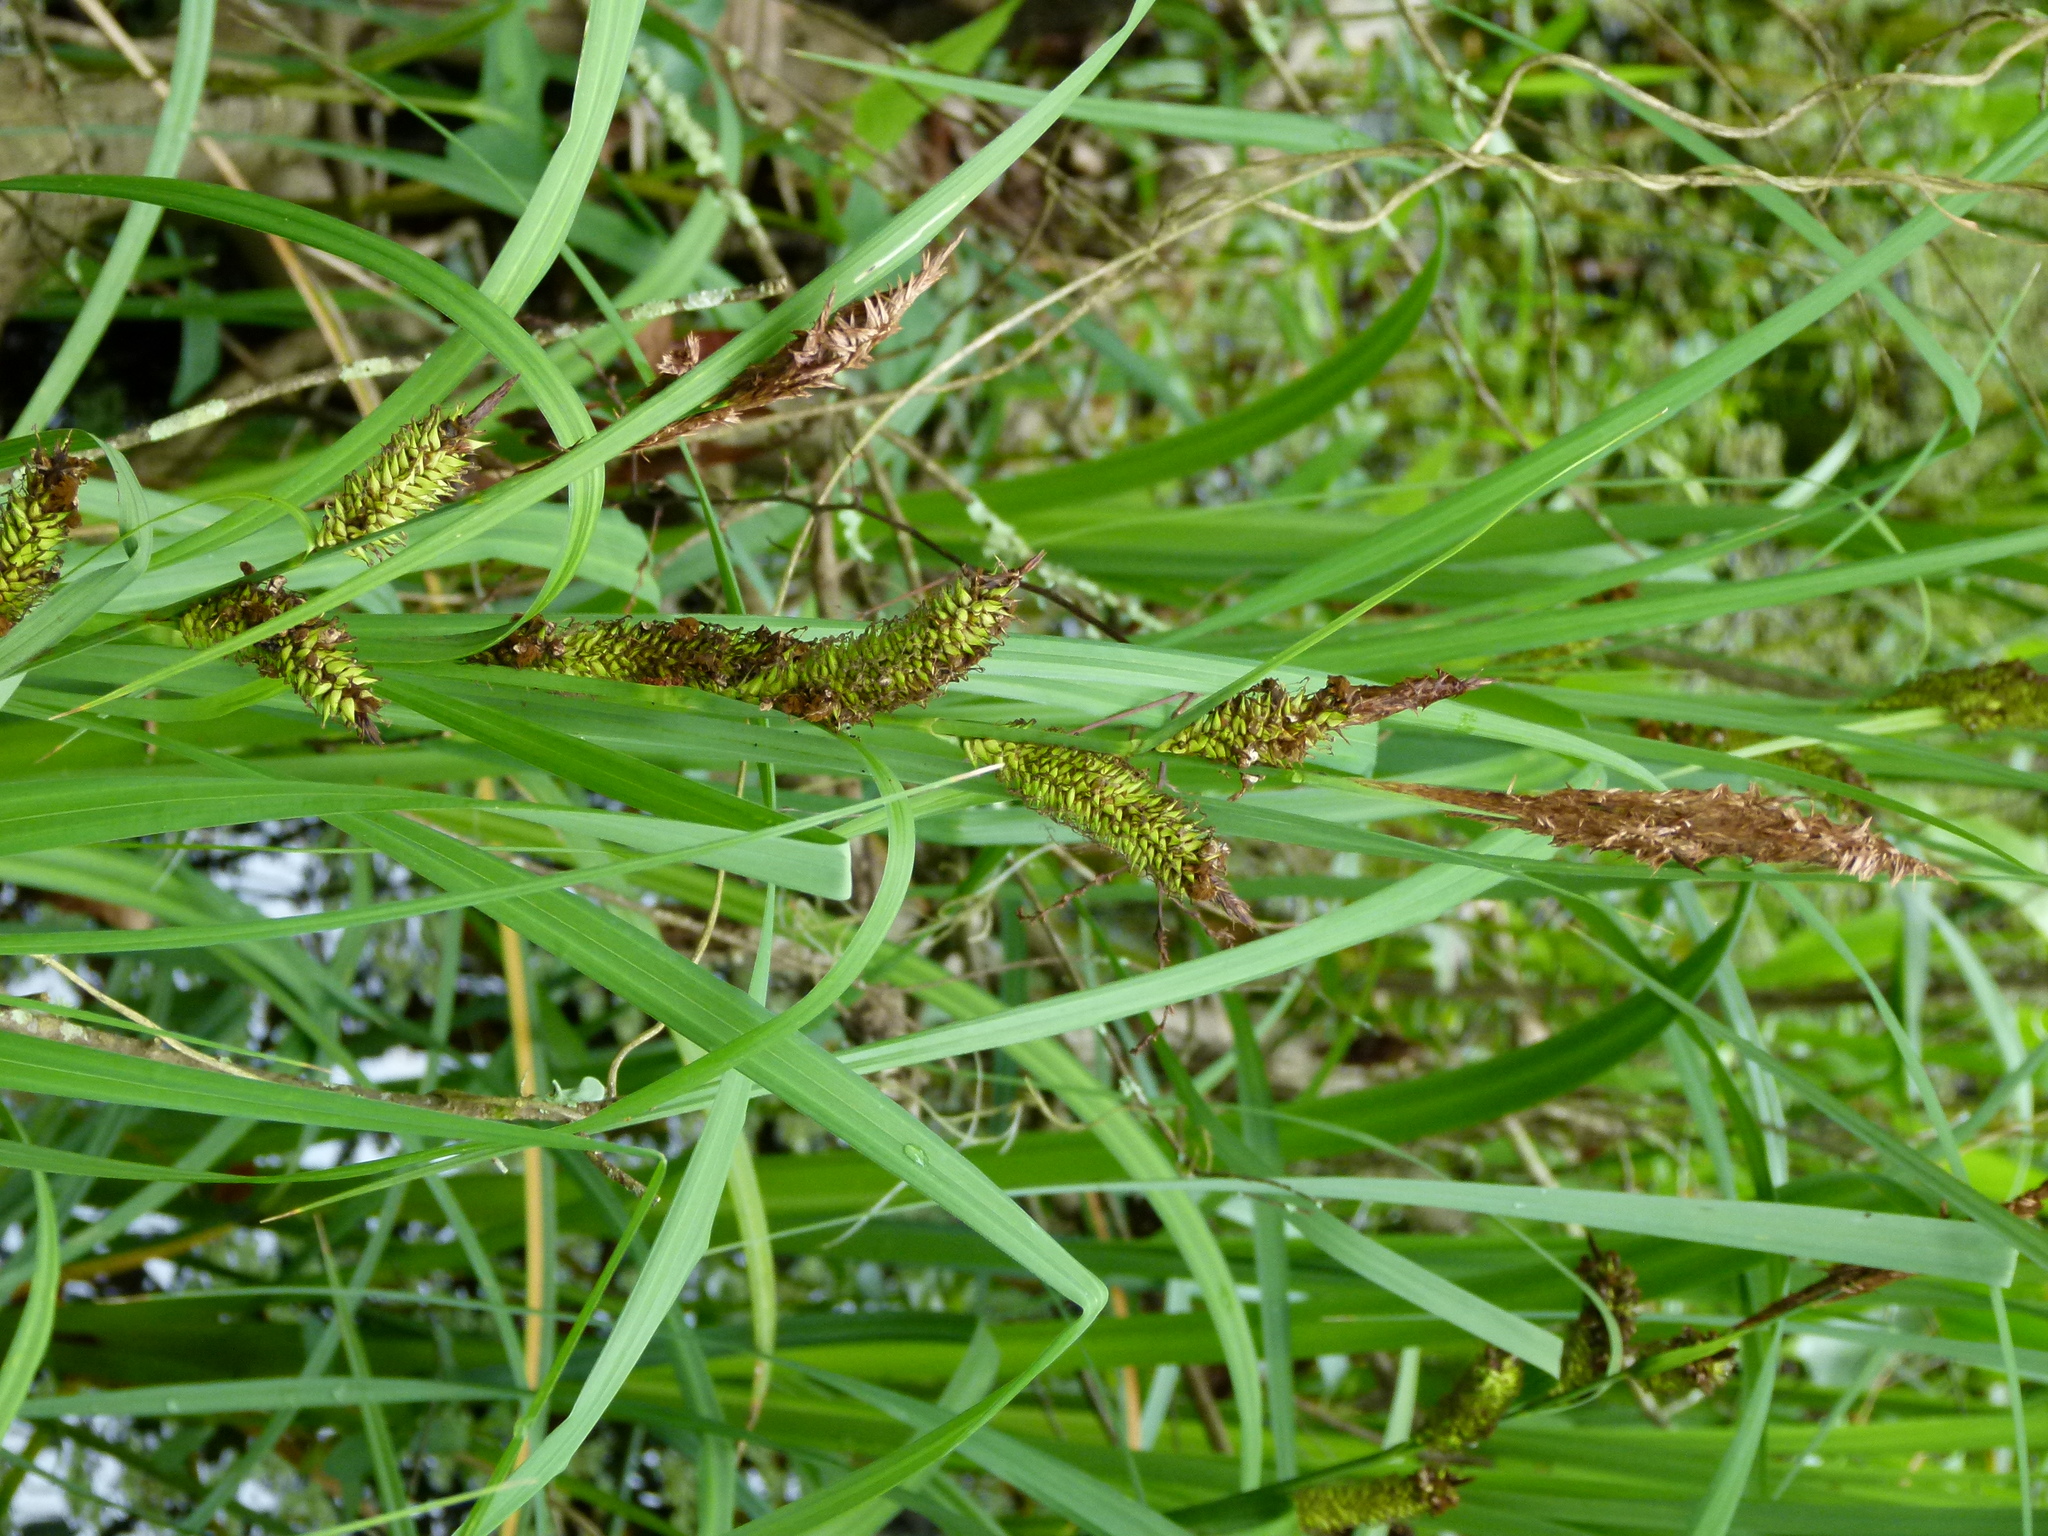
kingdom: Plantae
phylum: Tracheophyta
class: Liliopsida
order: Poales
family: Cyperaceae
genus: Carex
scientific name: Carex hyalinolepis
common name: Shoreline sedge
